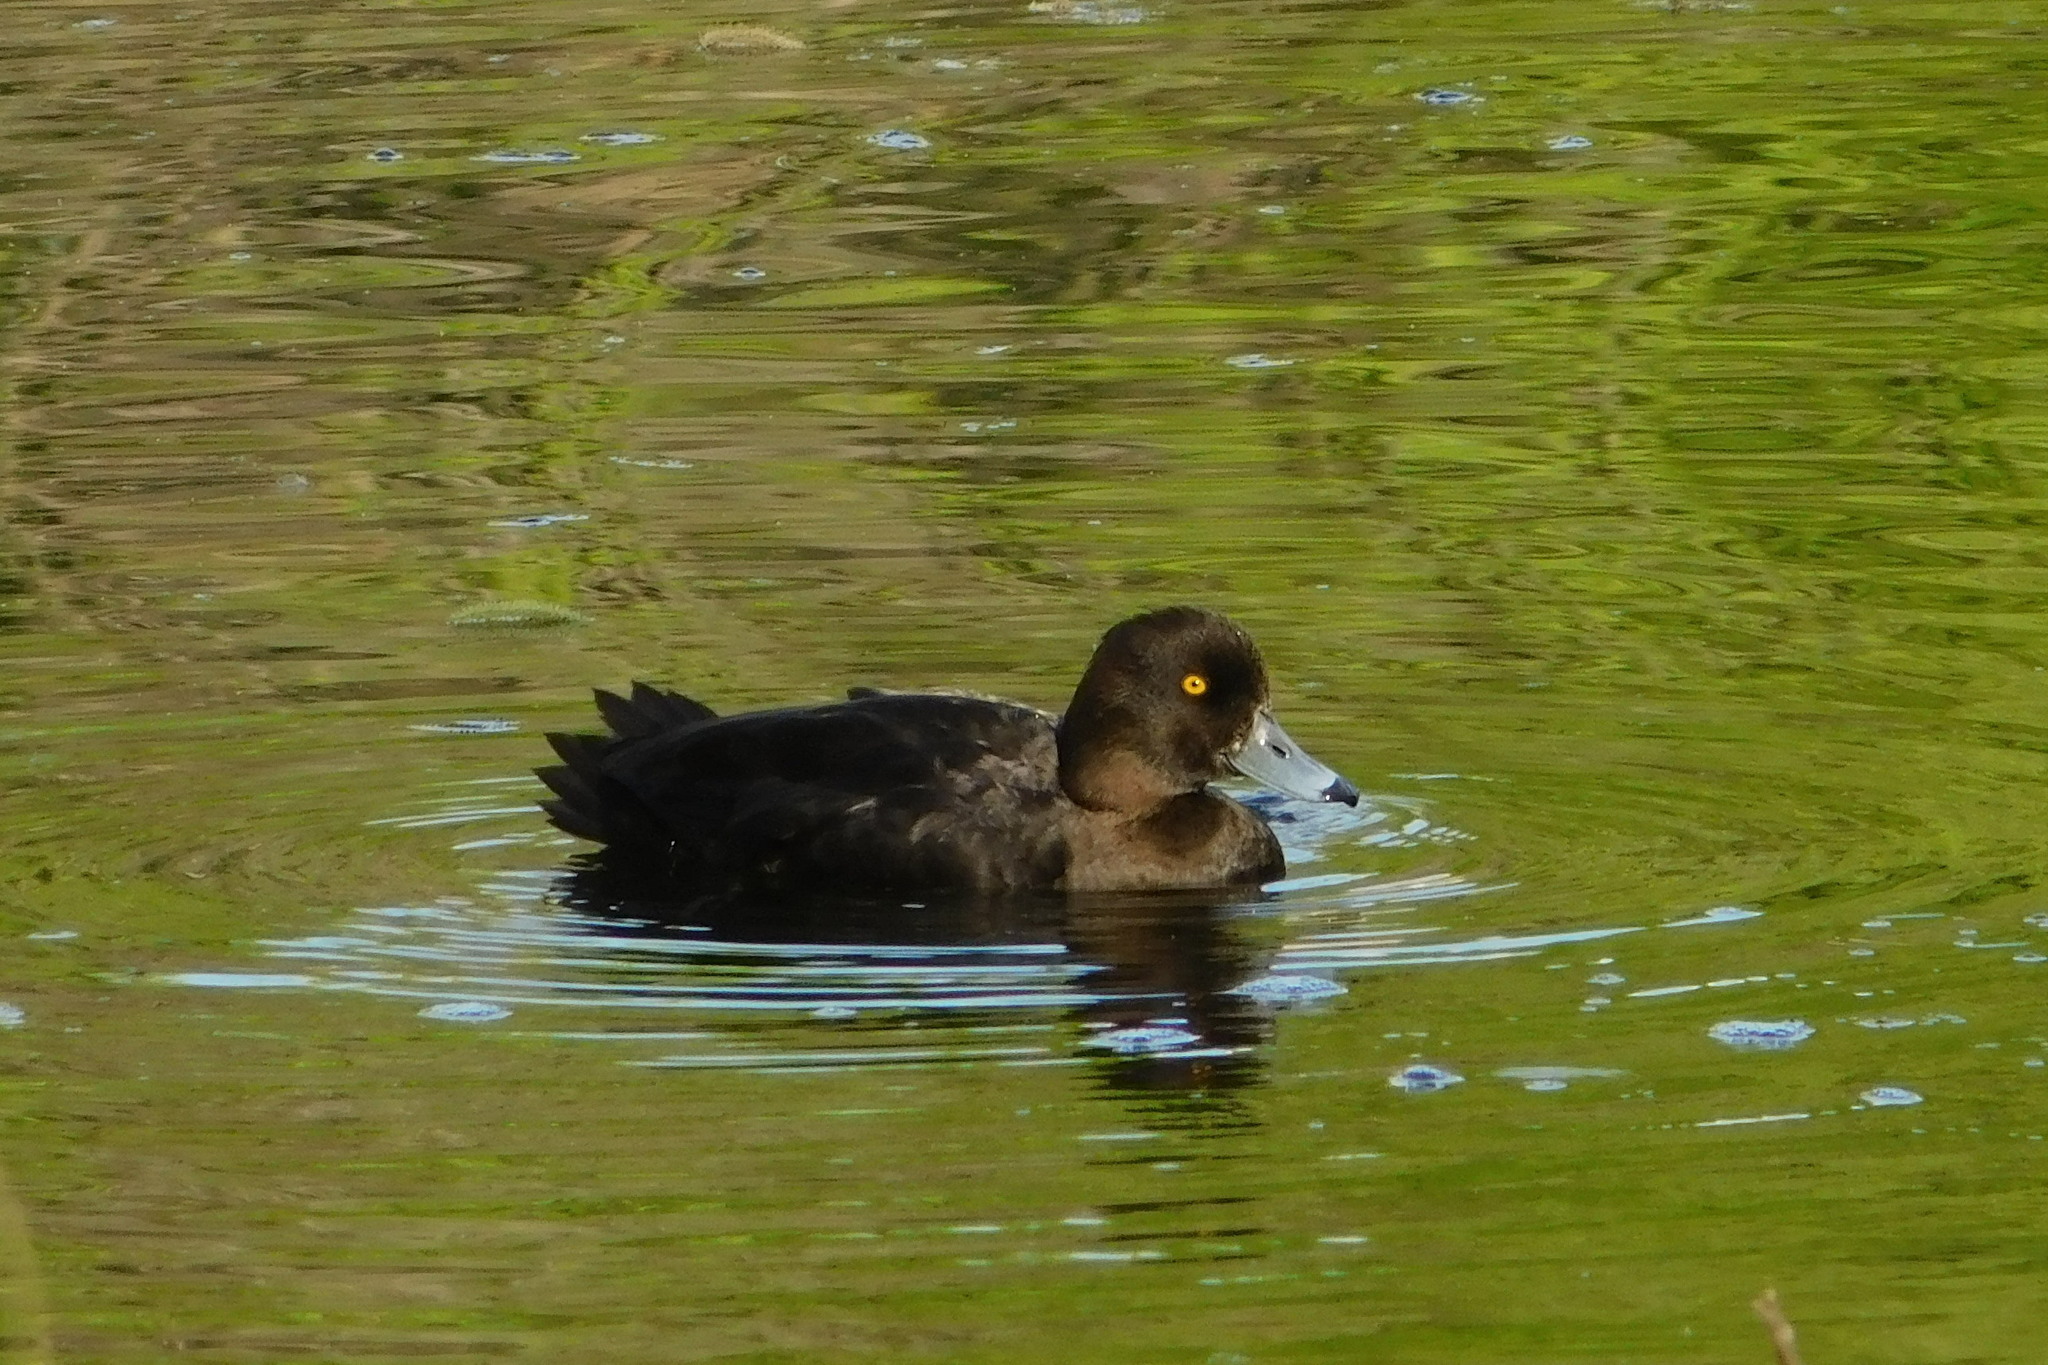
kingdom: Animalia
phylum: Chordata
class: Aves
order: Anseriformes
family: Anatidae
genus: Aythya
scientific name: Aythya fuligula
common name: Tufted duck
